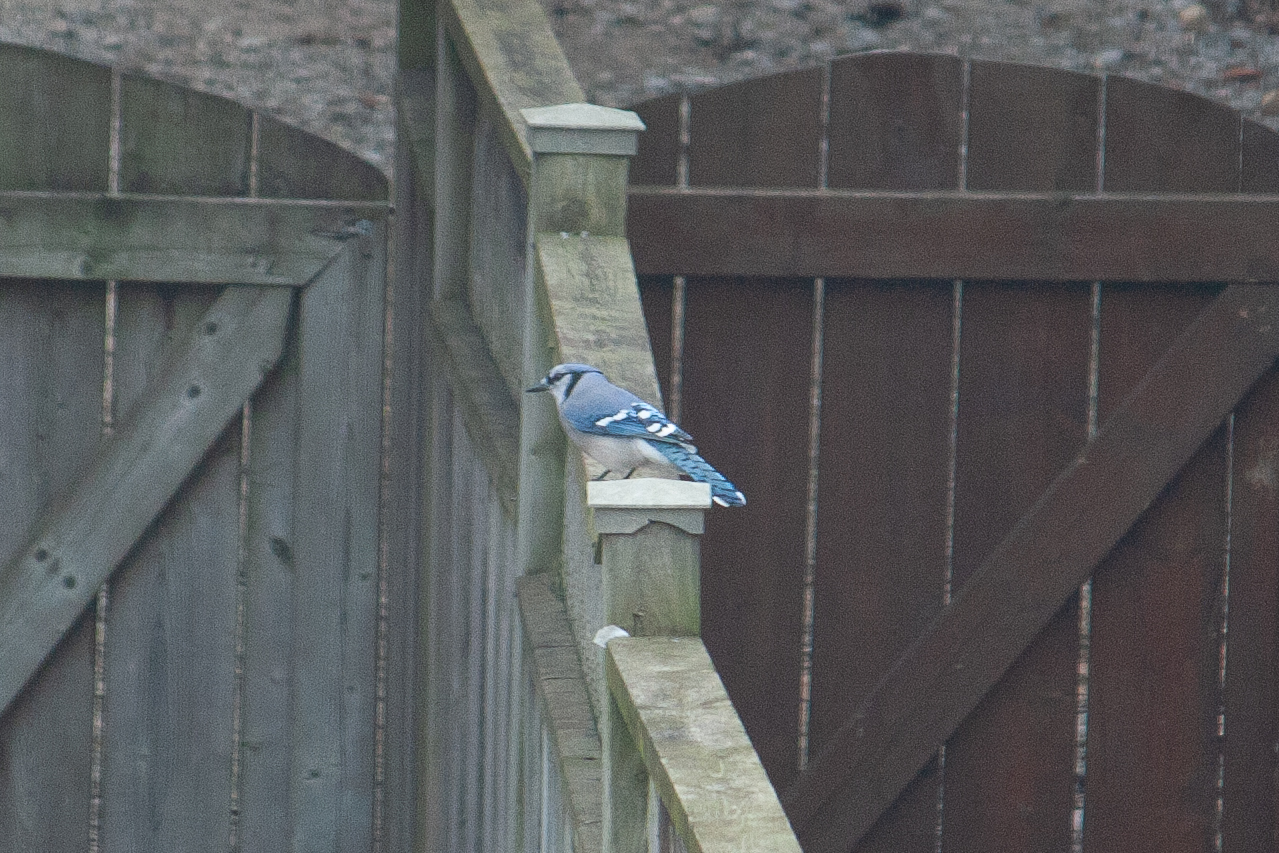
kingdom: Animalia
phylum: Chordata
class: Aves
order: Passeriformes
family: Corvidae
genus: Cyanocitta
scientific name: Cyanocitta cristata
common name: Blue jay
